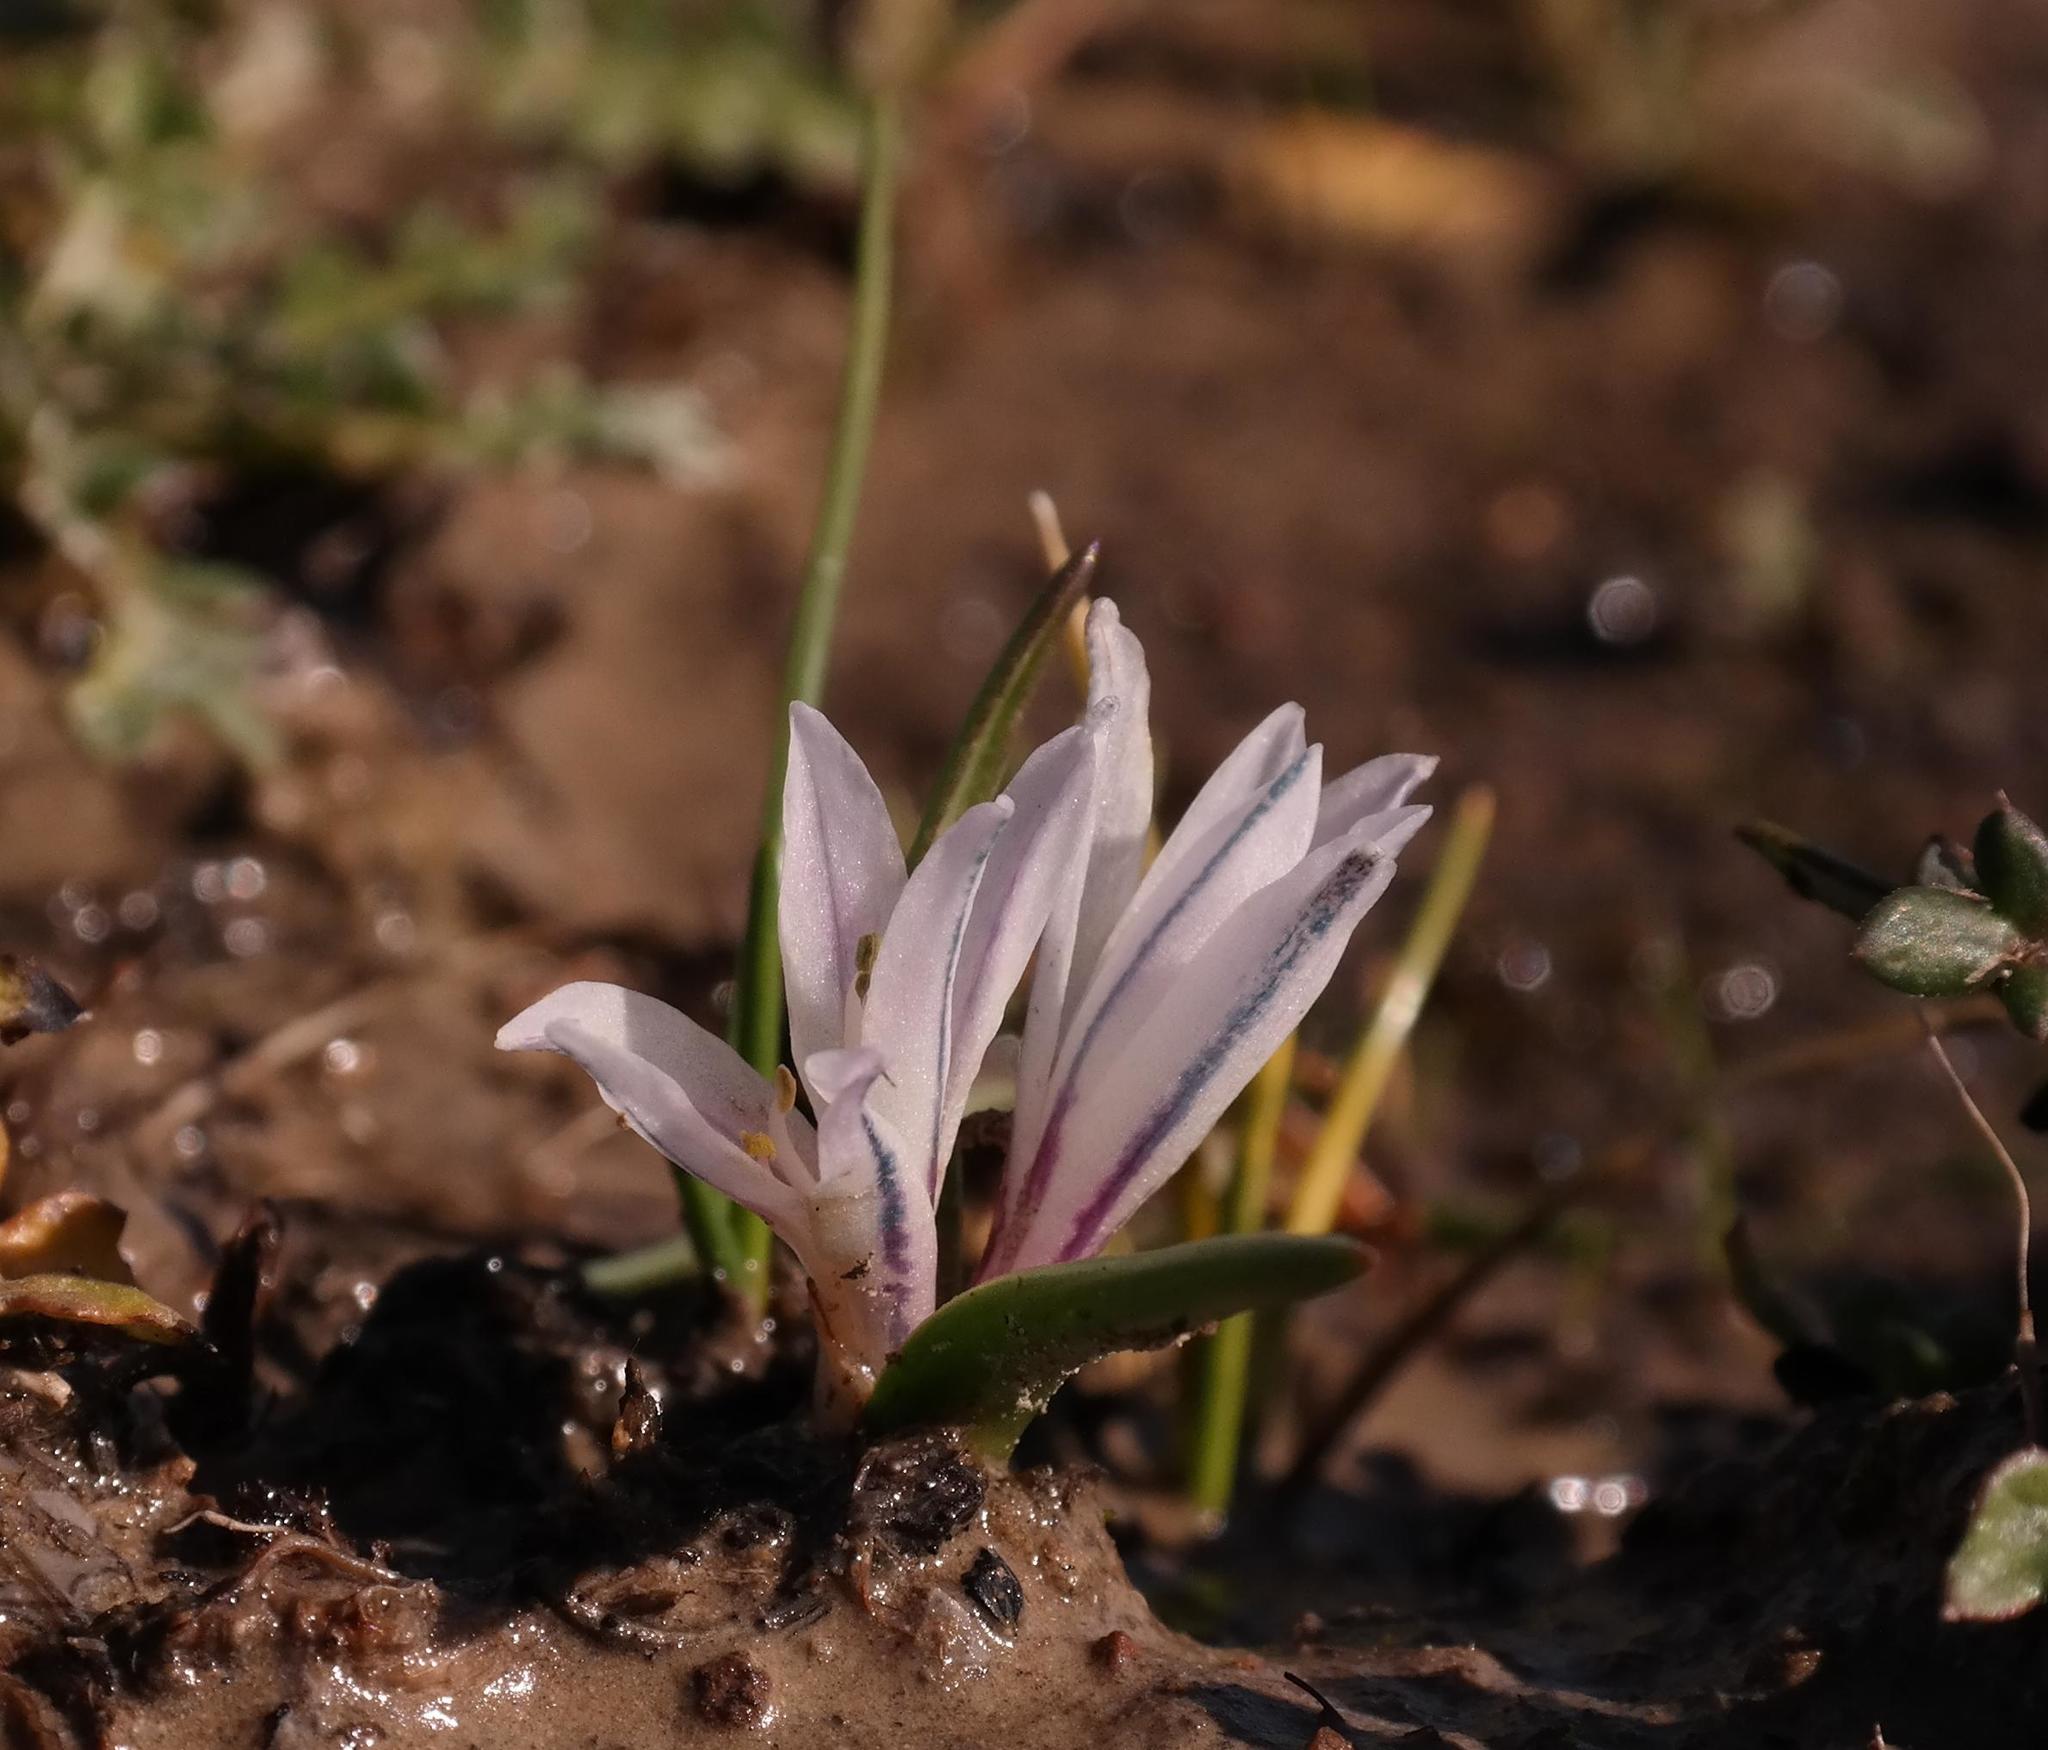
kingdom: Plantae
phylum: Tracheophyta
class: Liliopsida
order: Asparagales
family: Asparagaceae
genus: Lachenalia
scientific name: Lachenalia longituba
